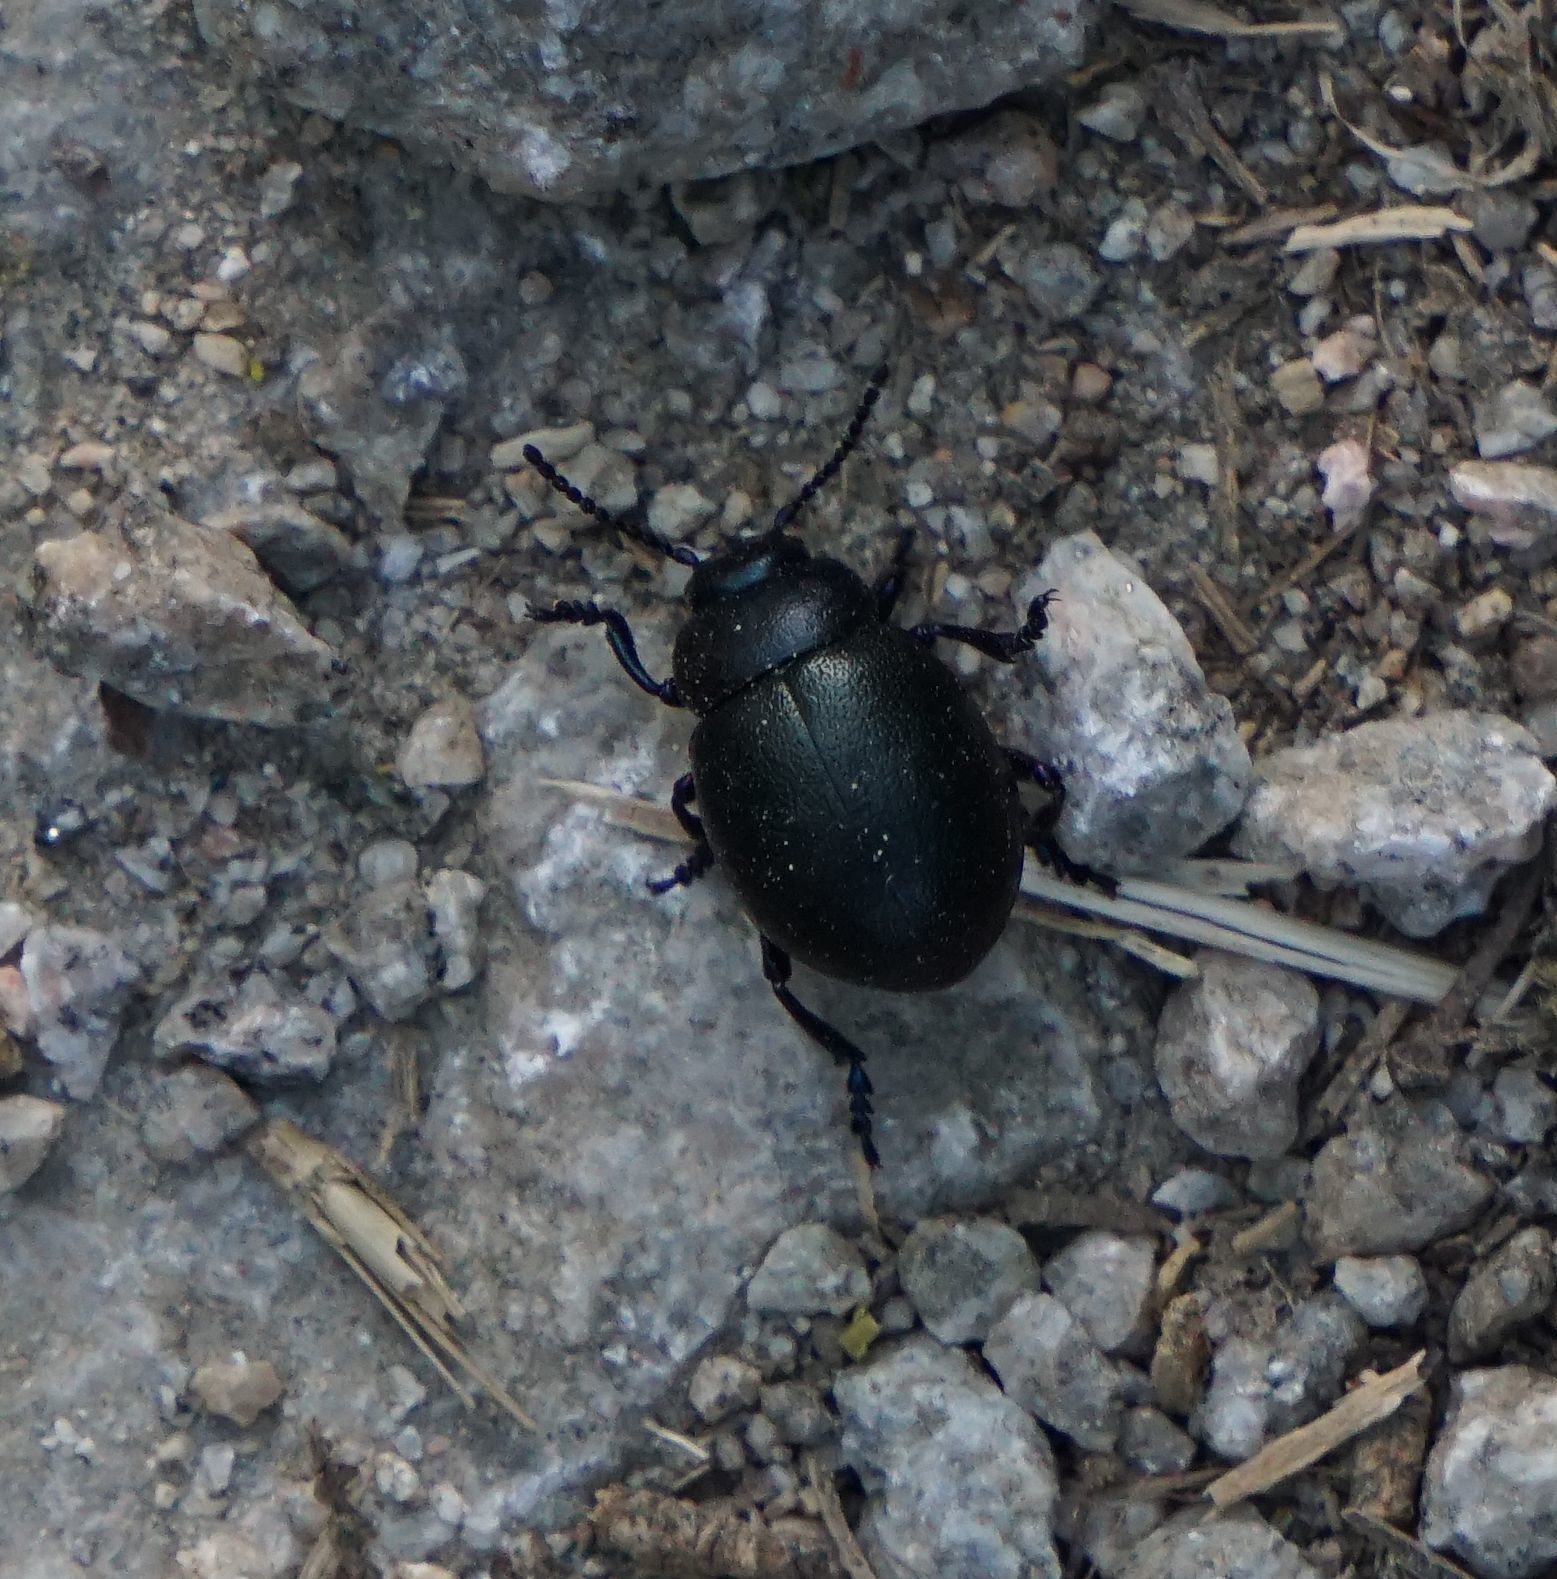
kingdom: Animalia
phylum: Arthropoda
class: Insecta
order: Coleoptera
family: Chrysomelidae
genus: Timarcha
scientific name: Timarcha goettingensis
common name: Small bloody-nosed beetle
